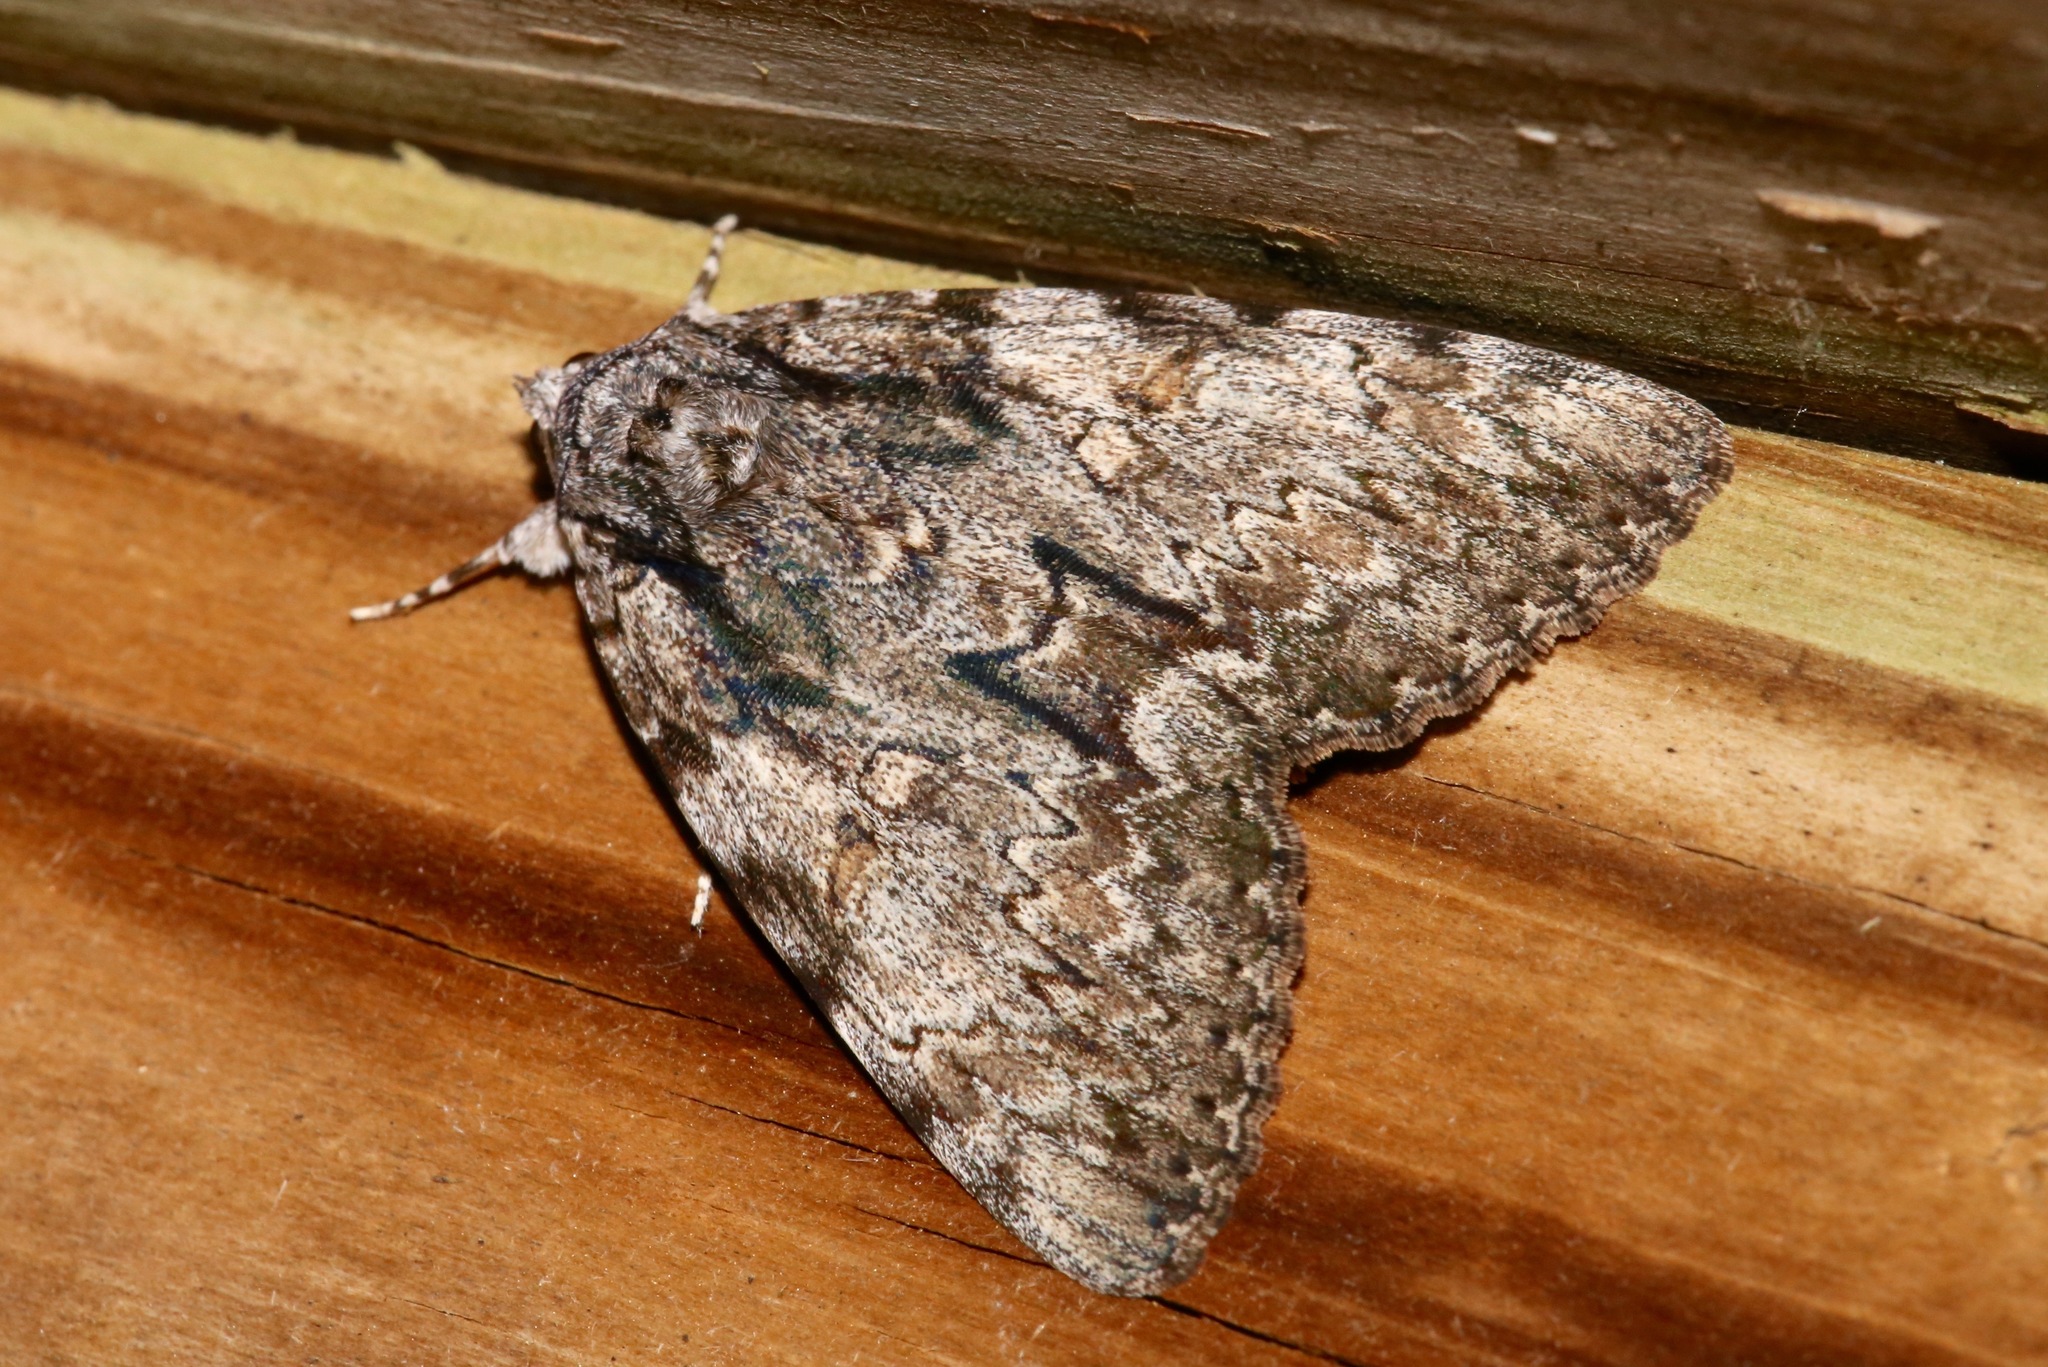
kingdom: Animalia
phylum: Arthropoda
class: Insecta
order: Lepidoptera
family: Erebidae
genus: Catocala
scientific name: Catocala palaeogama
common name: Oldwife underwing
